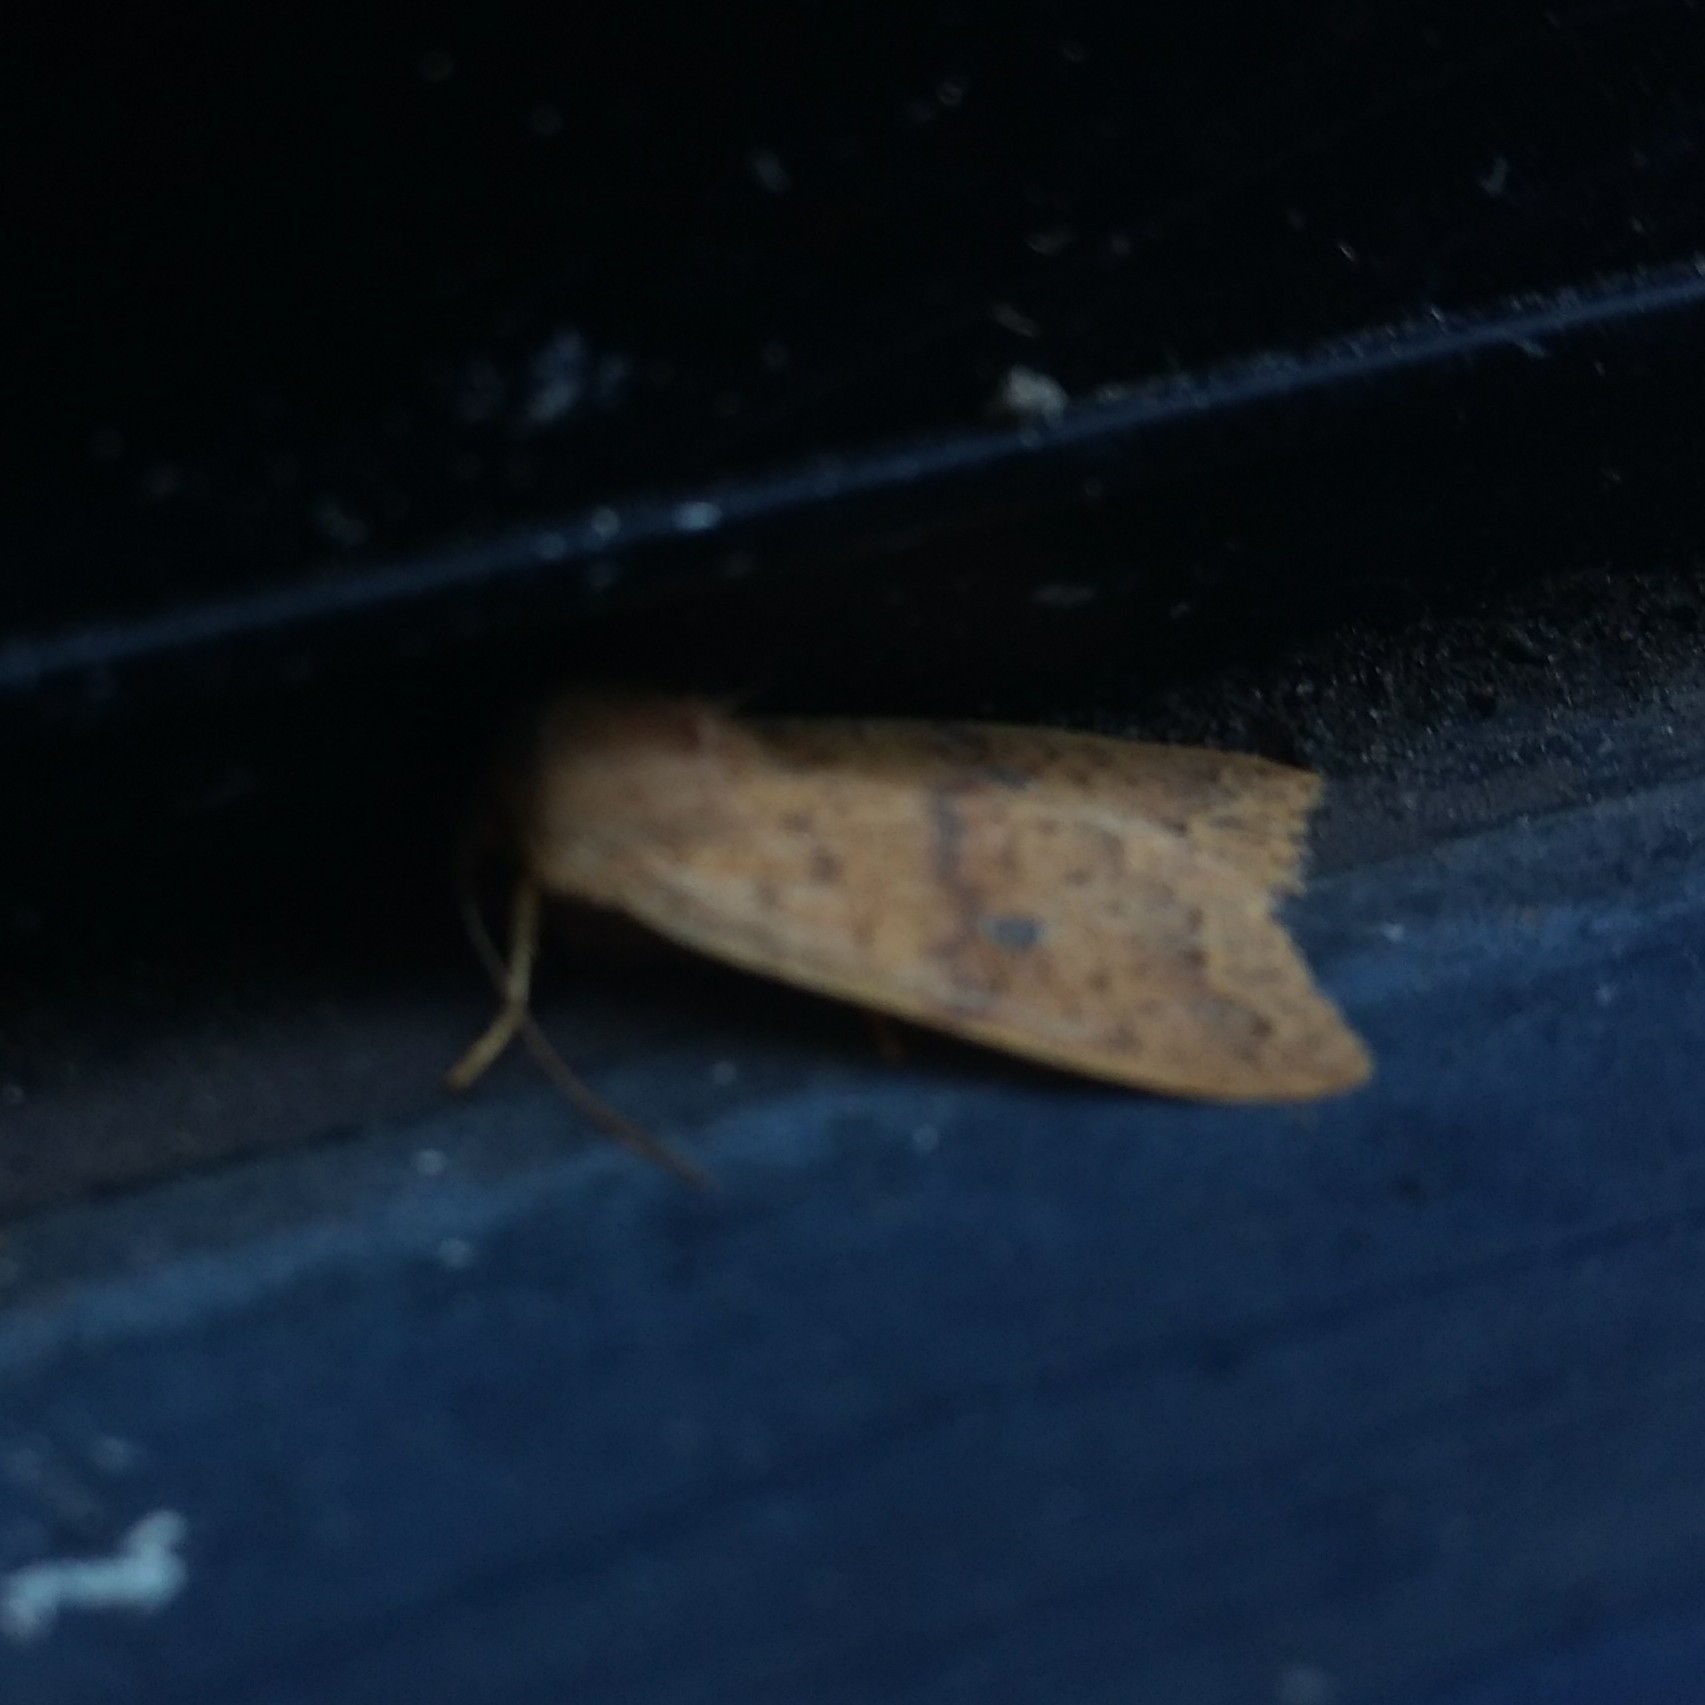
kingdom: Animalia
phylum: Arthropoda
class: Insecta
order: Lepidoptera
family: Noctuidae
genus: Agrochola
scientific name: Agrochola bicolorago
